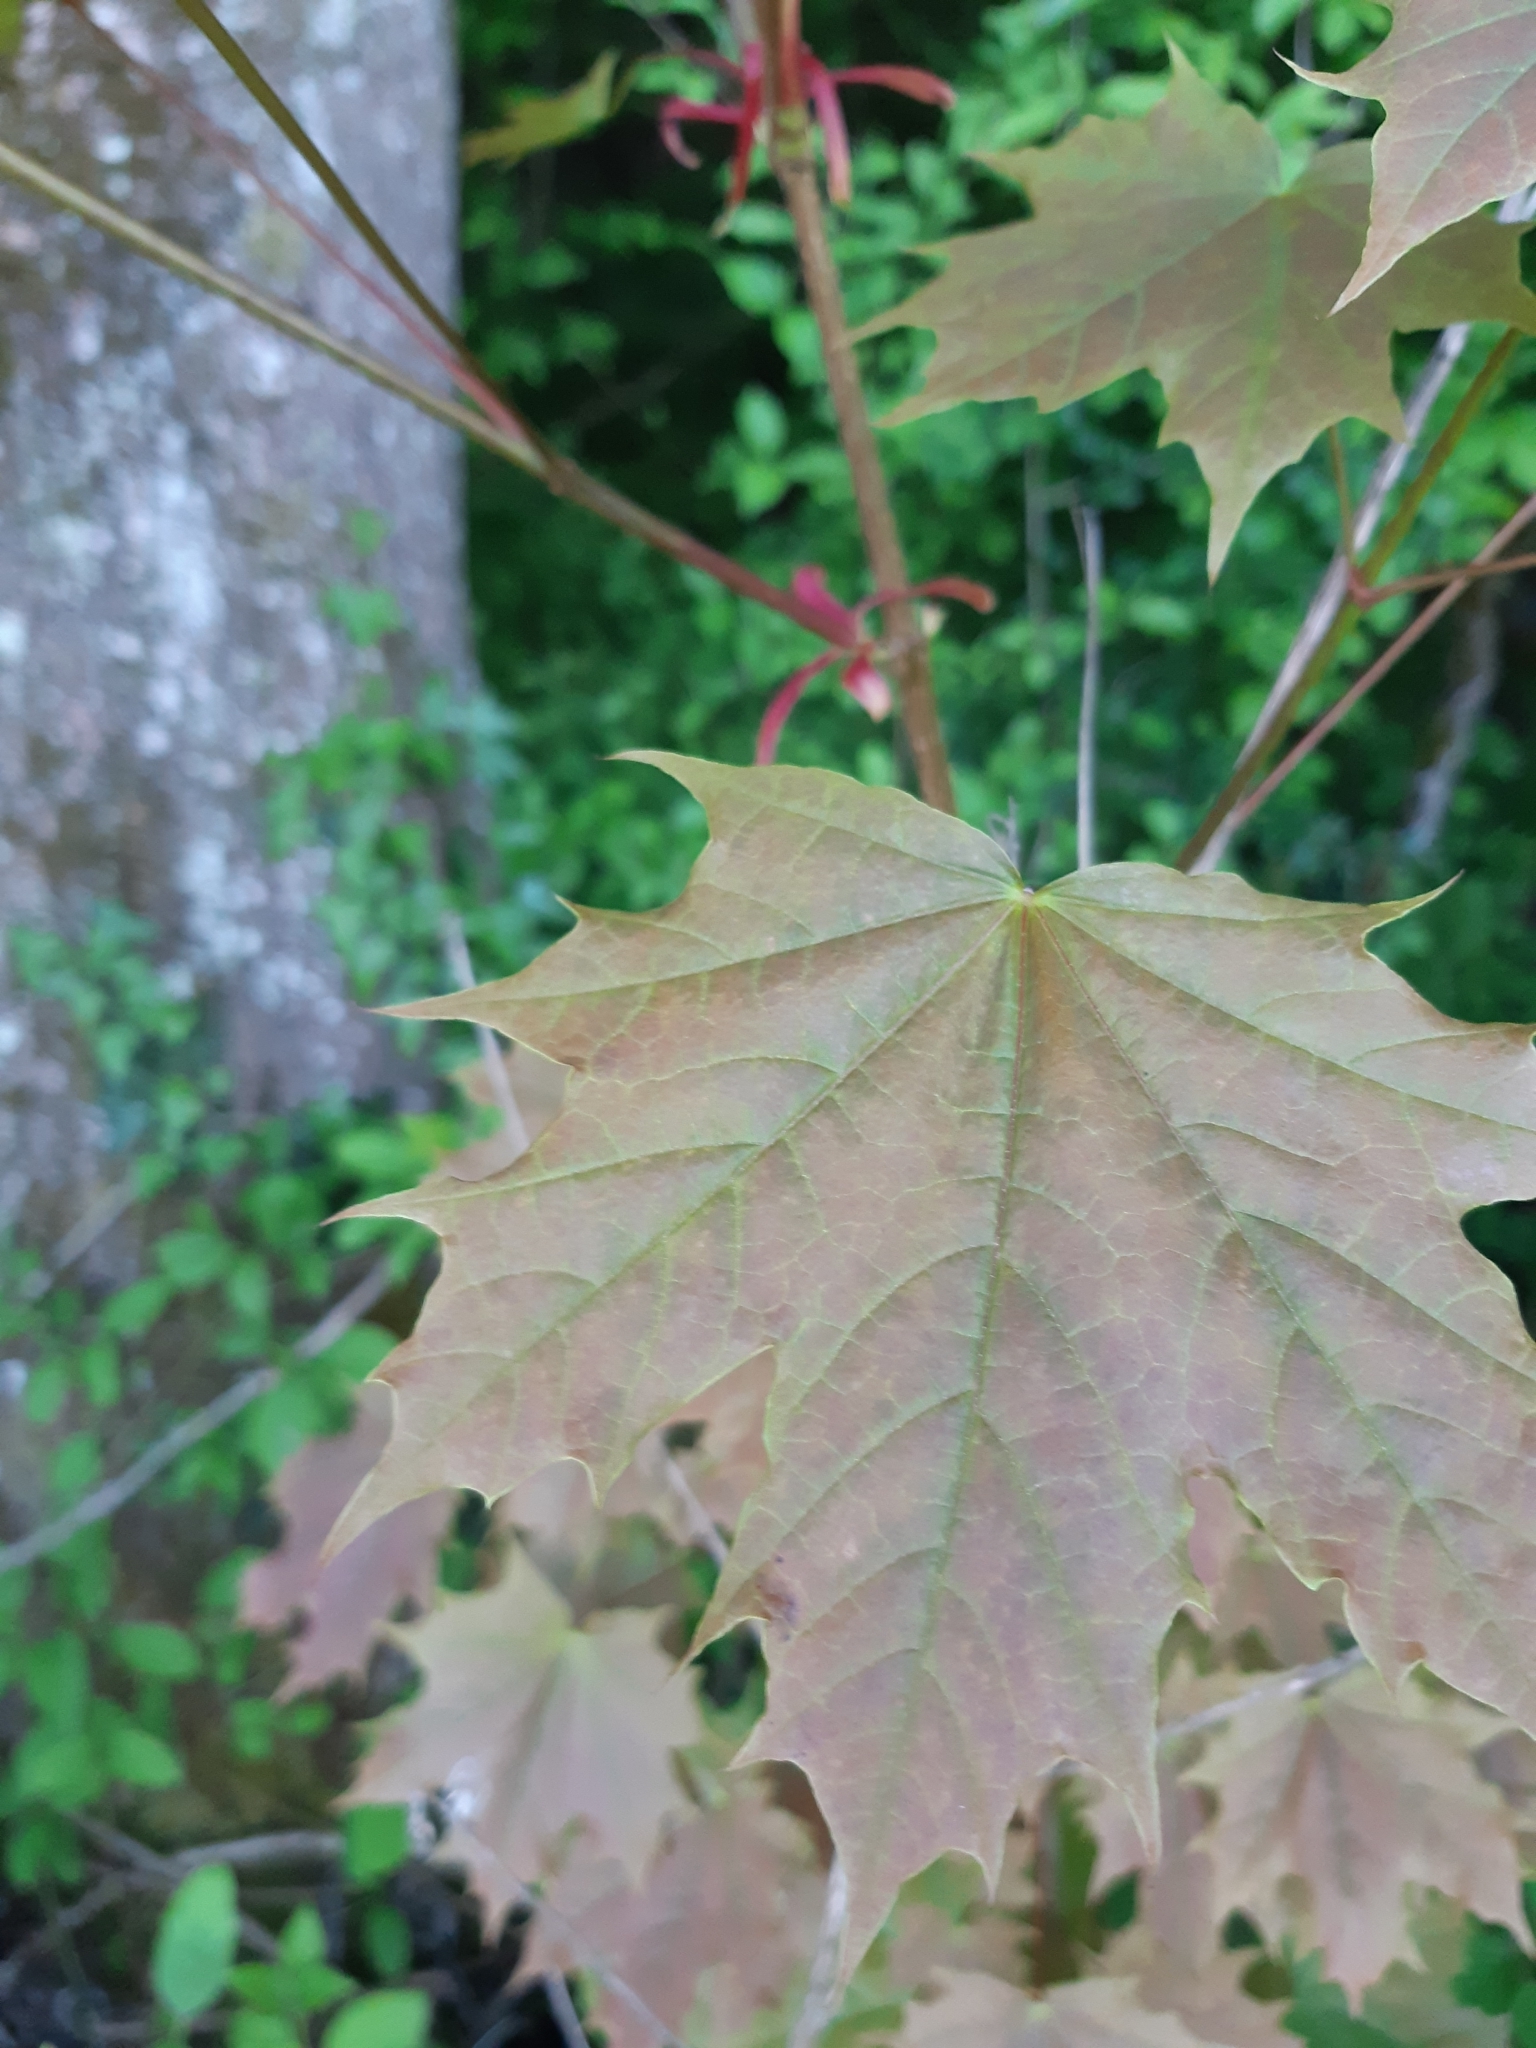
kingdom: Plantae
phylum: Tracheophyta
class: Magnoliopsida
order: Sapindales
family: Sapindaceae
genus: Acer
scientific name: Acer platanoides
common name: Norway maple
